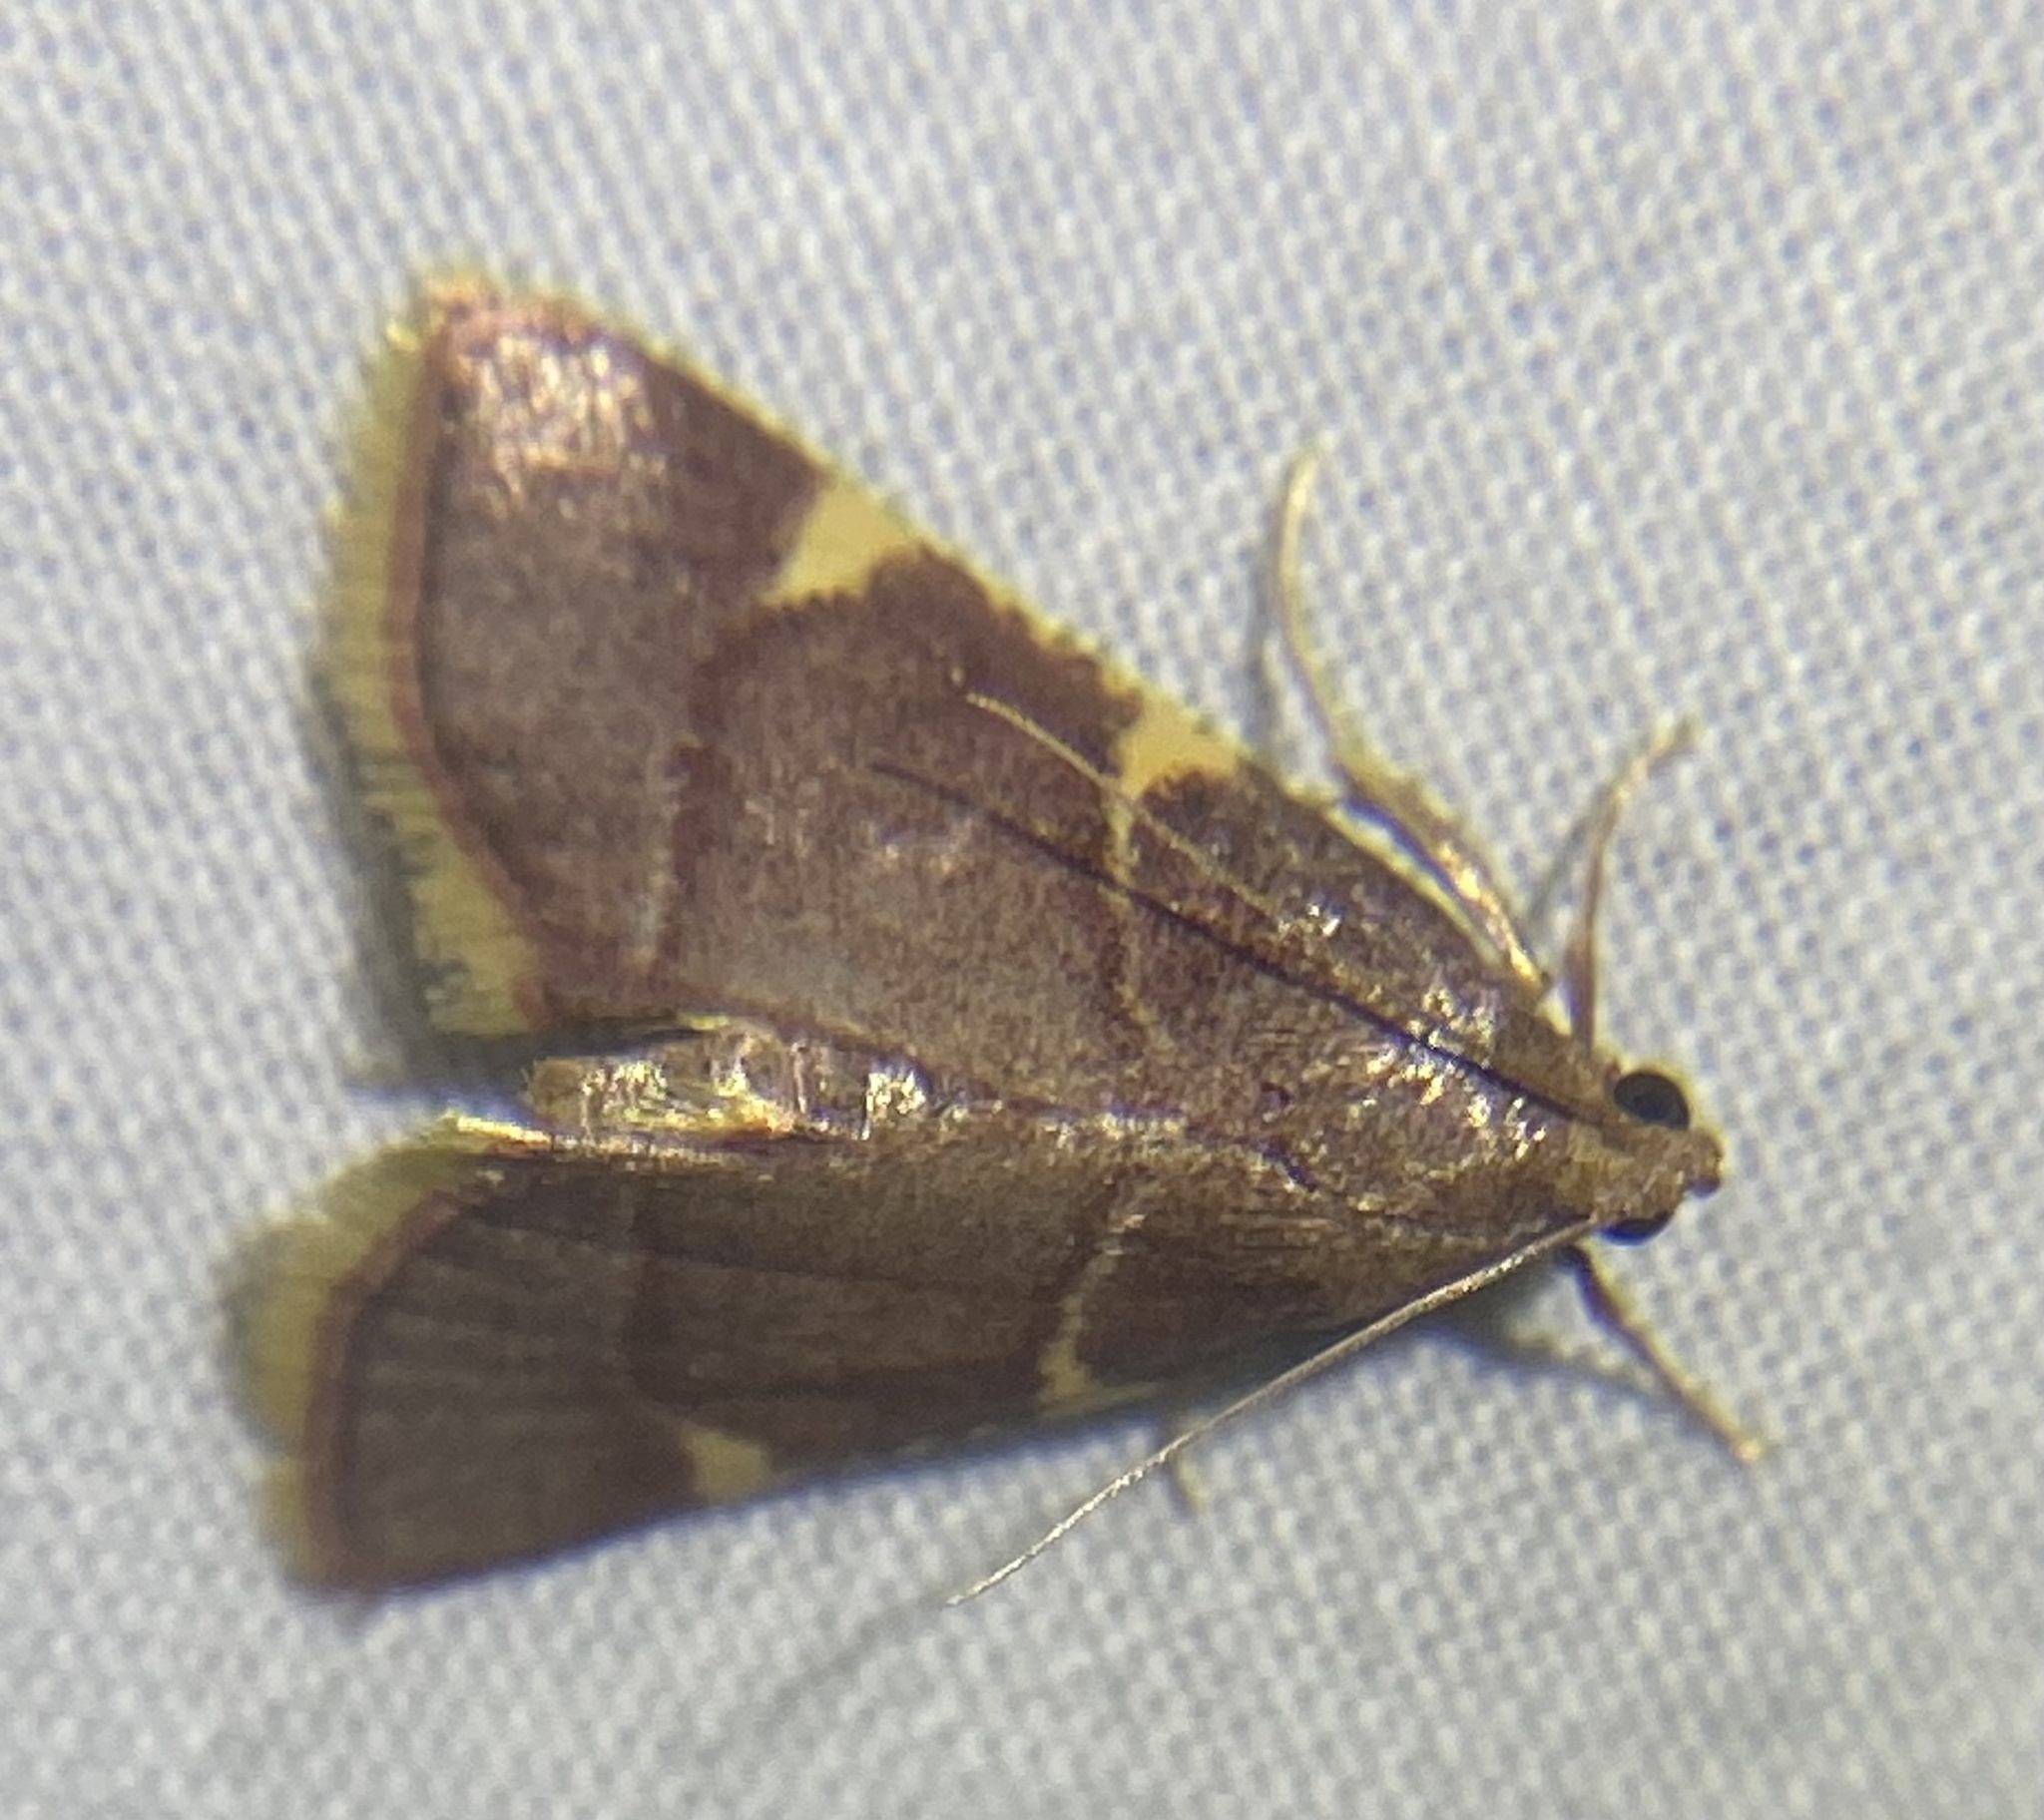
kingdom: Animalia
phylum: Arthropoda
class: Insecta
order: Lepidoptera
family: Pyralidae
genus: Hypsopygia
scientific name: Hypsopygia olinalis
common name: Yellow-fringed dolichomia moth
